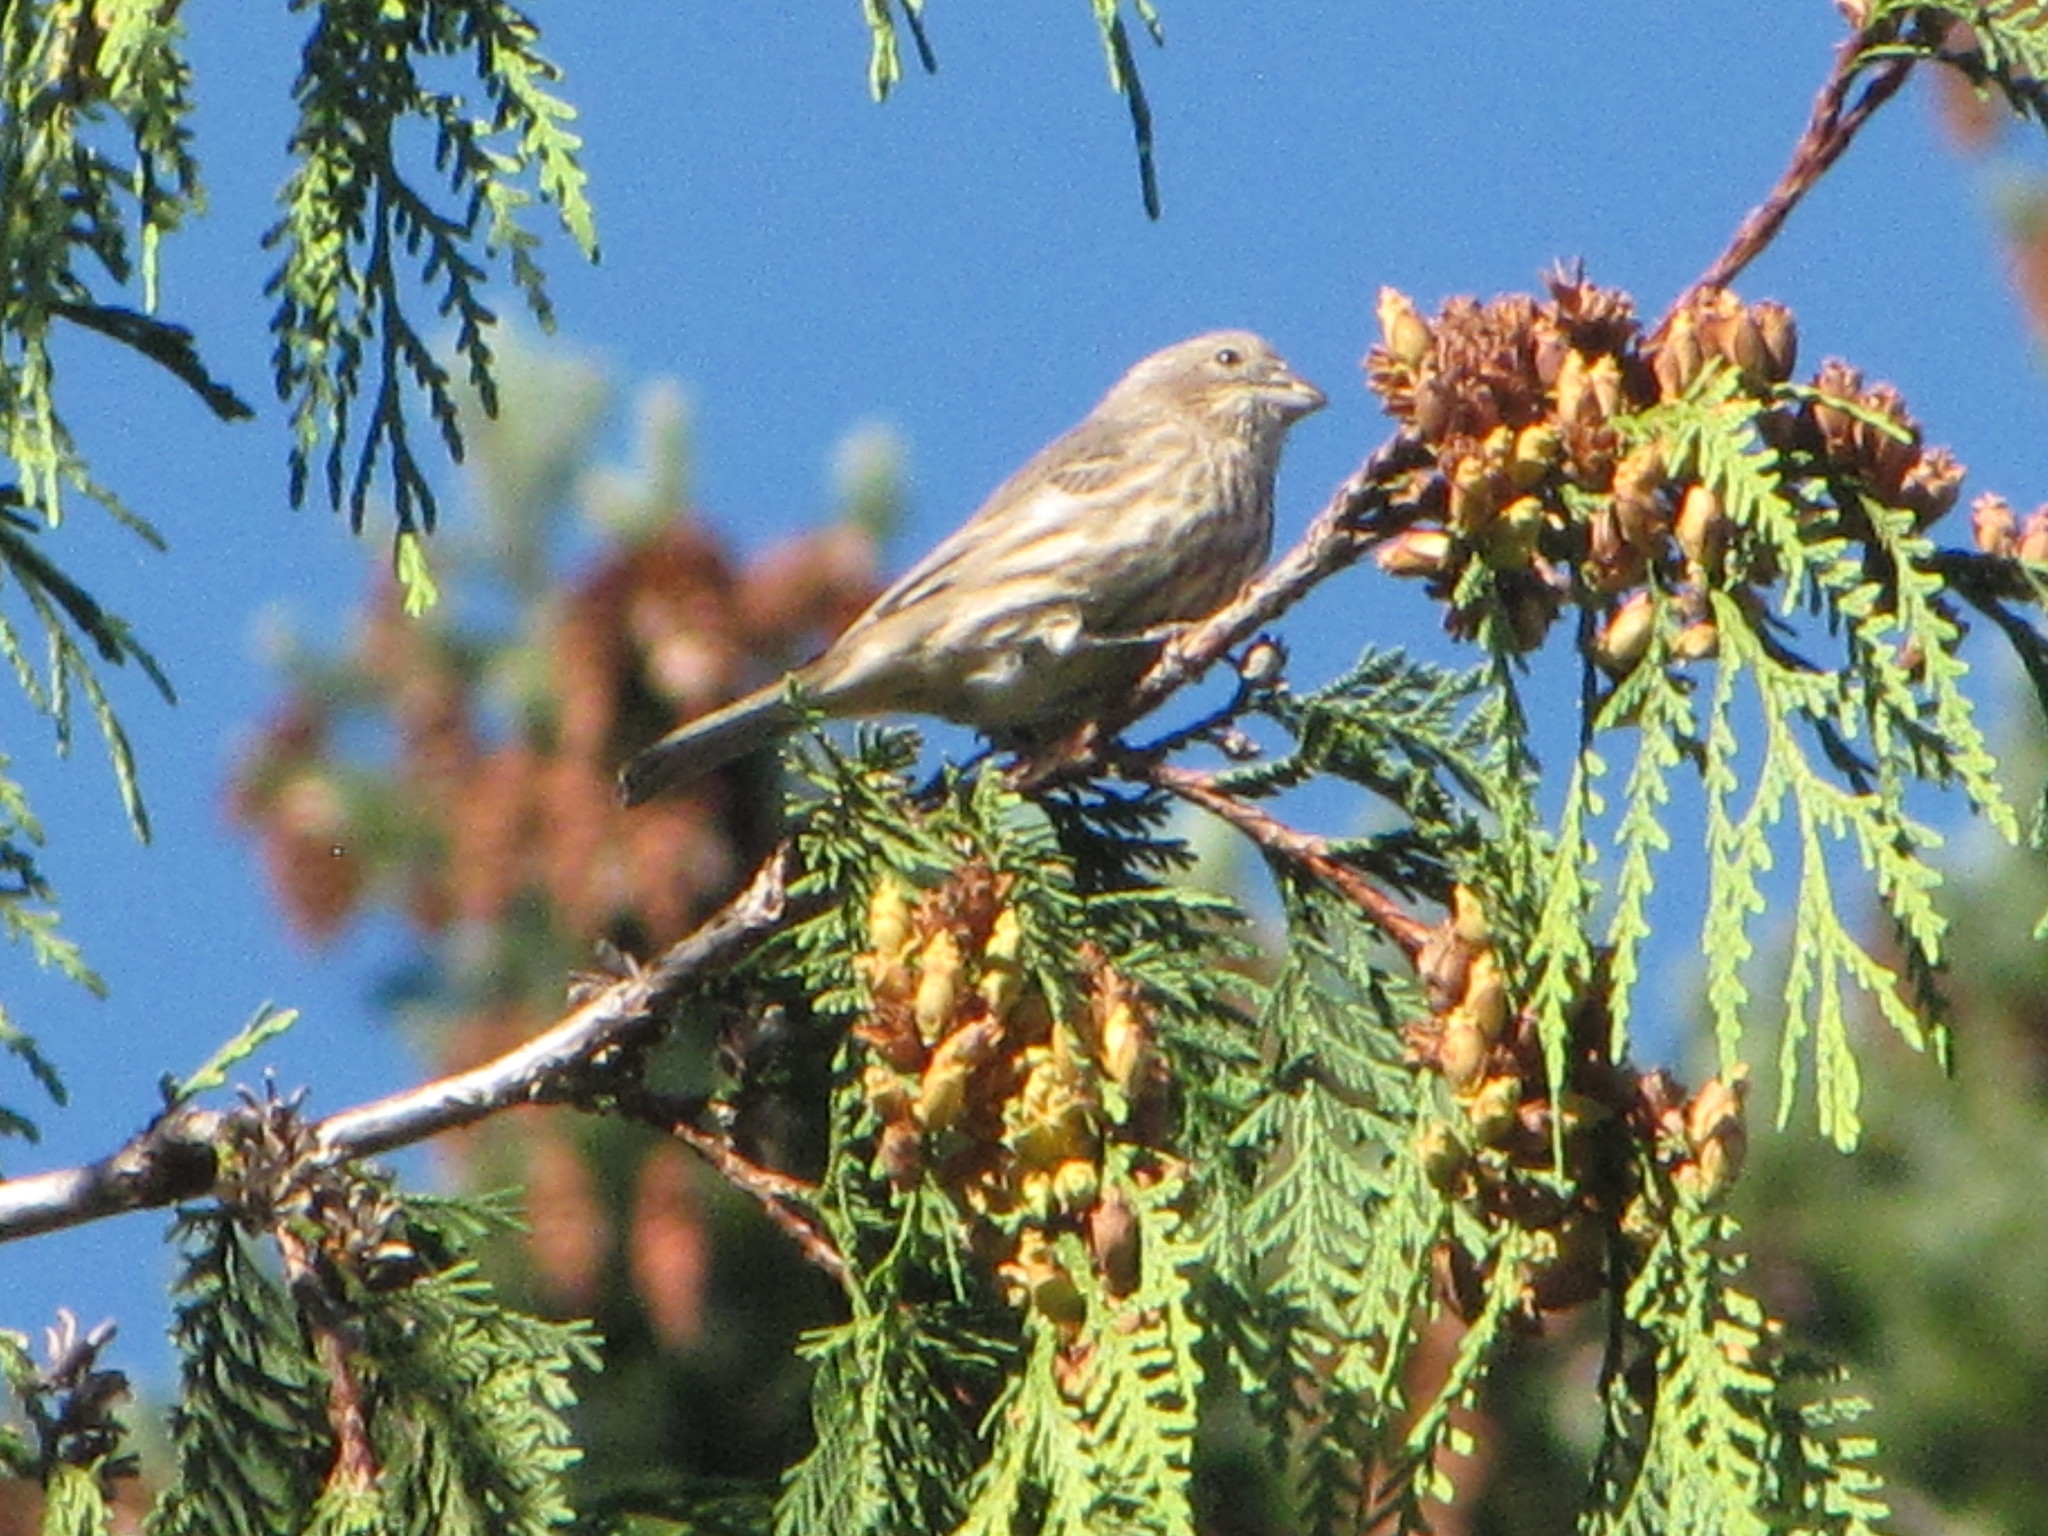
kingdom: Animalia
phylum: Chordata
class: Aves
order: Passeriformes
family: Fringillidae
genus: Haemorhous
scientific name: Haemorhous mexicanus
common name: House finch
